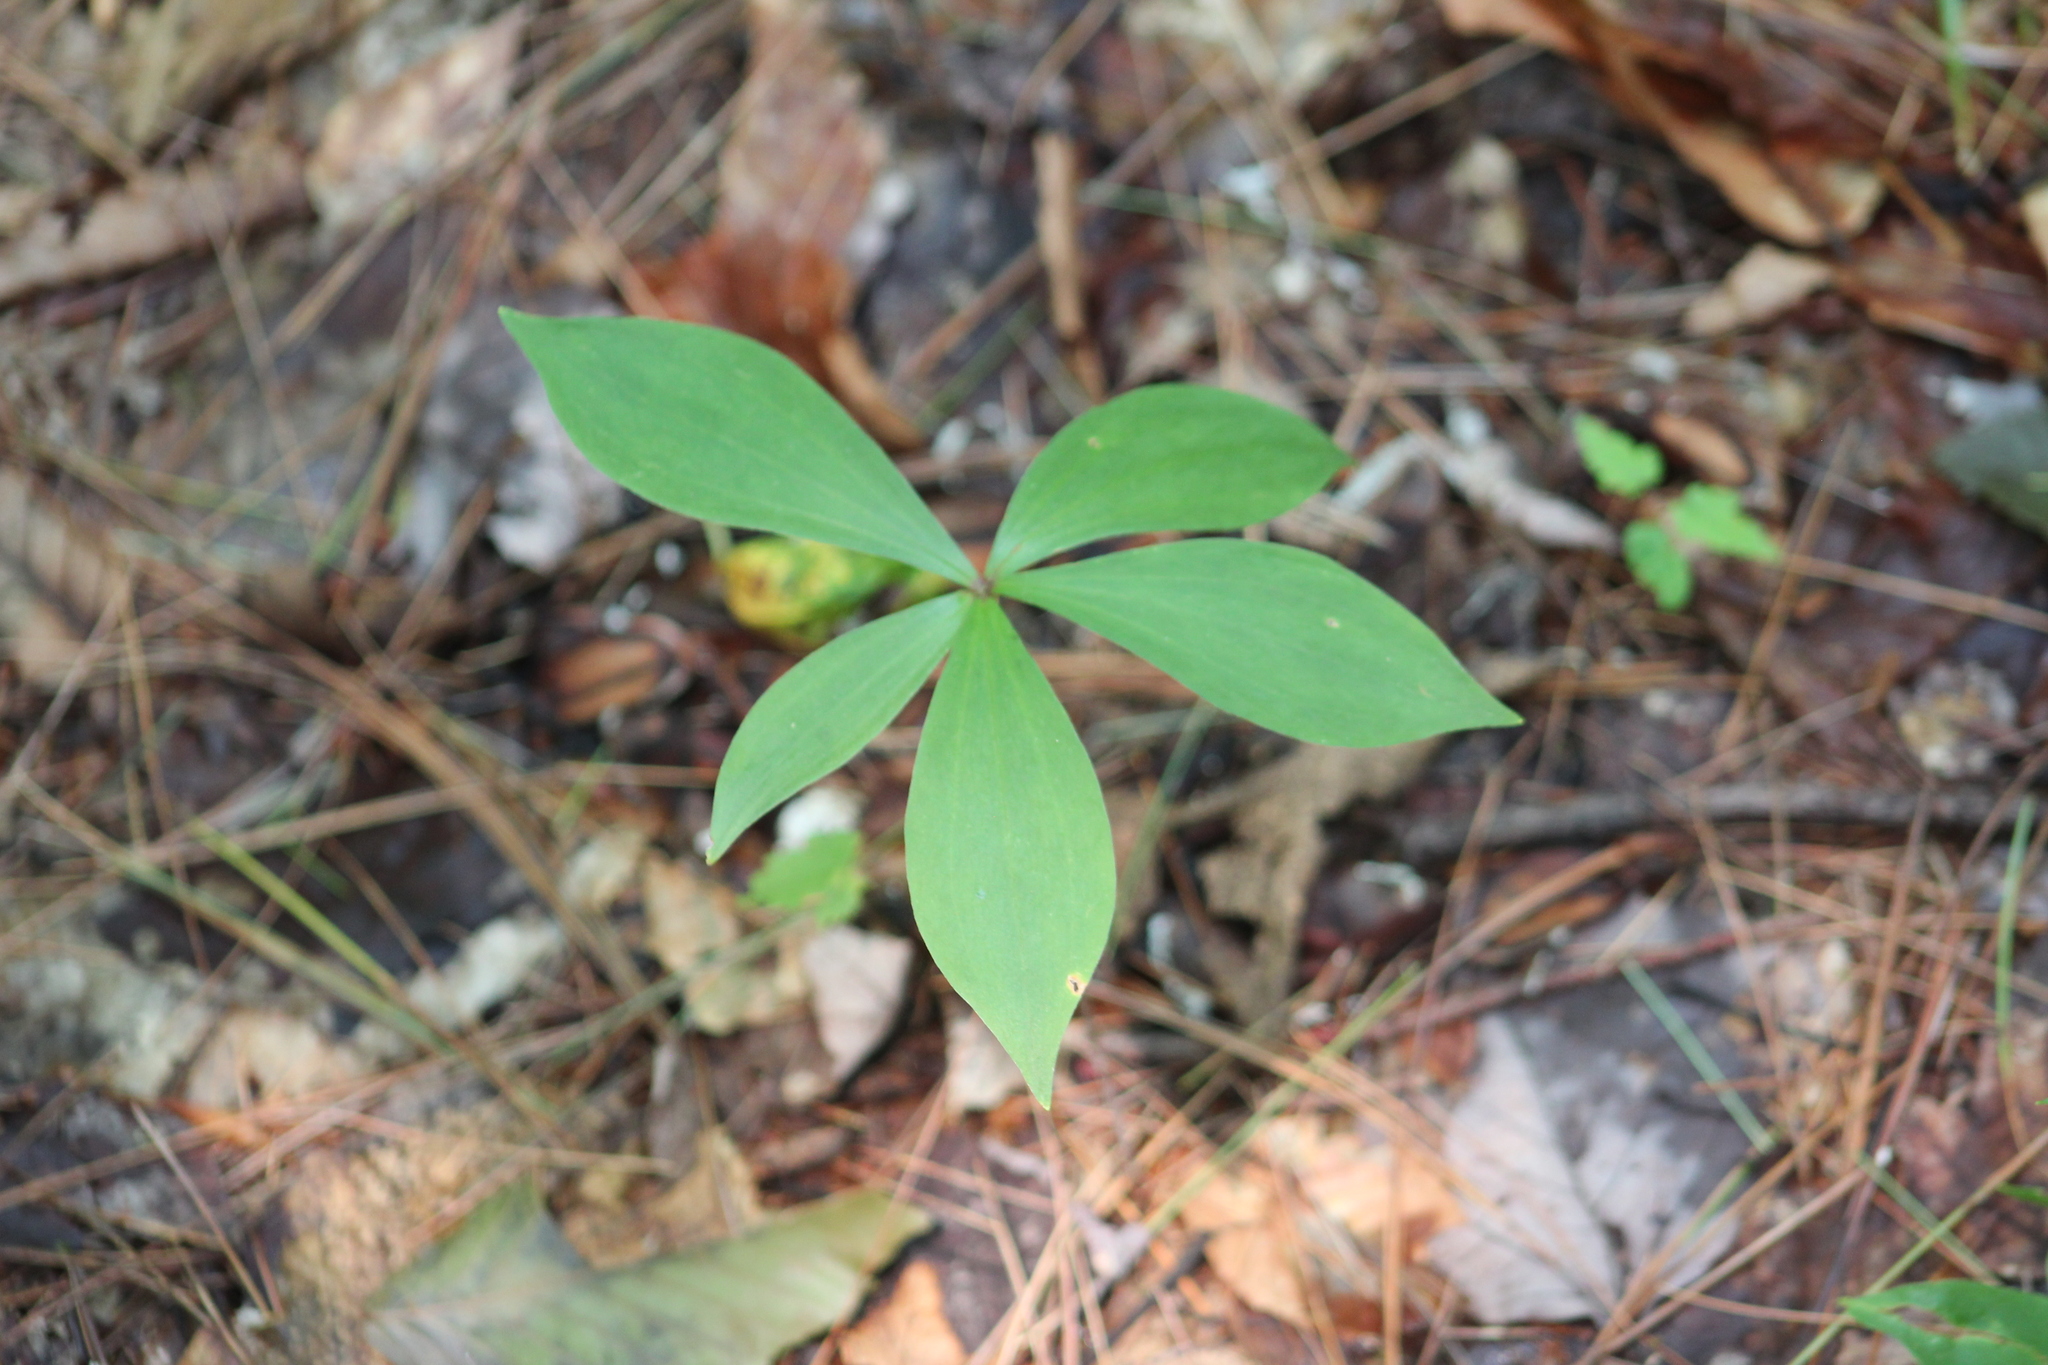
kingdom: Plantae
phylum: Tracheophyta
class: Liliopsida
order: Liliales
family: Liliaceae
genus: Medeola
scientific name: Medeola virginiana
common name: Indian cucumber-root
